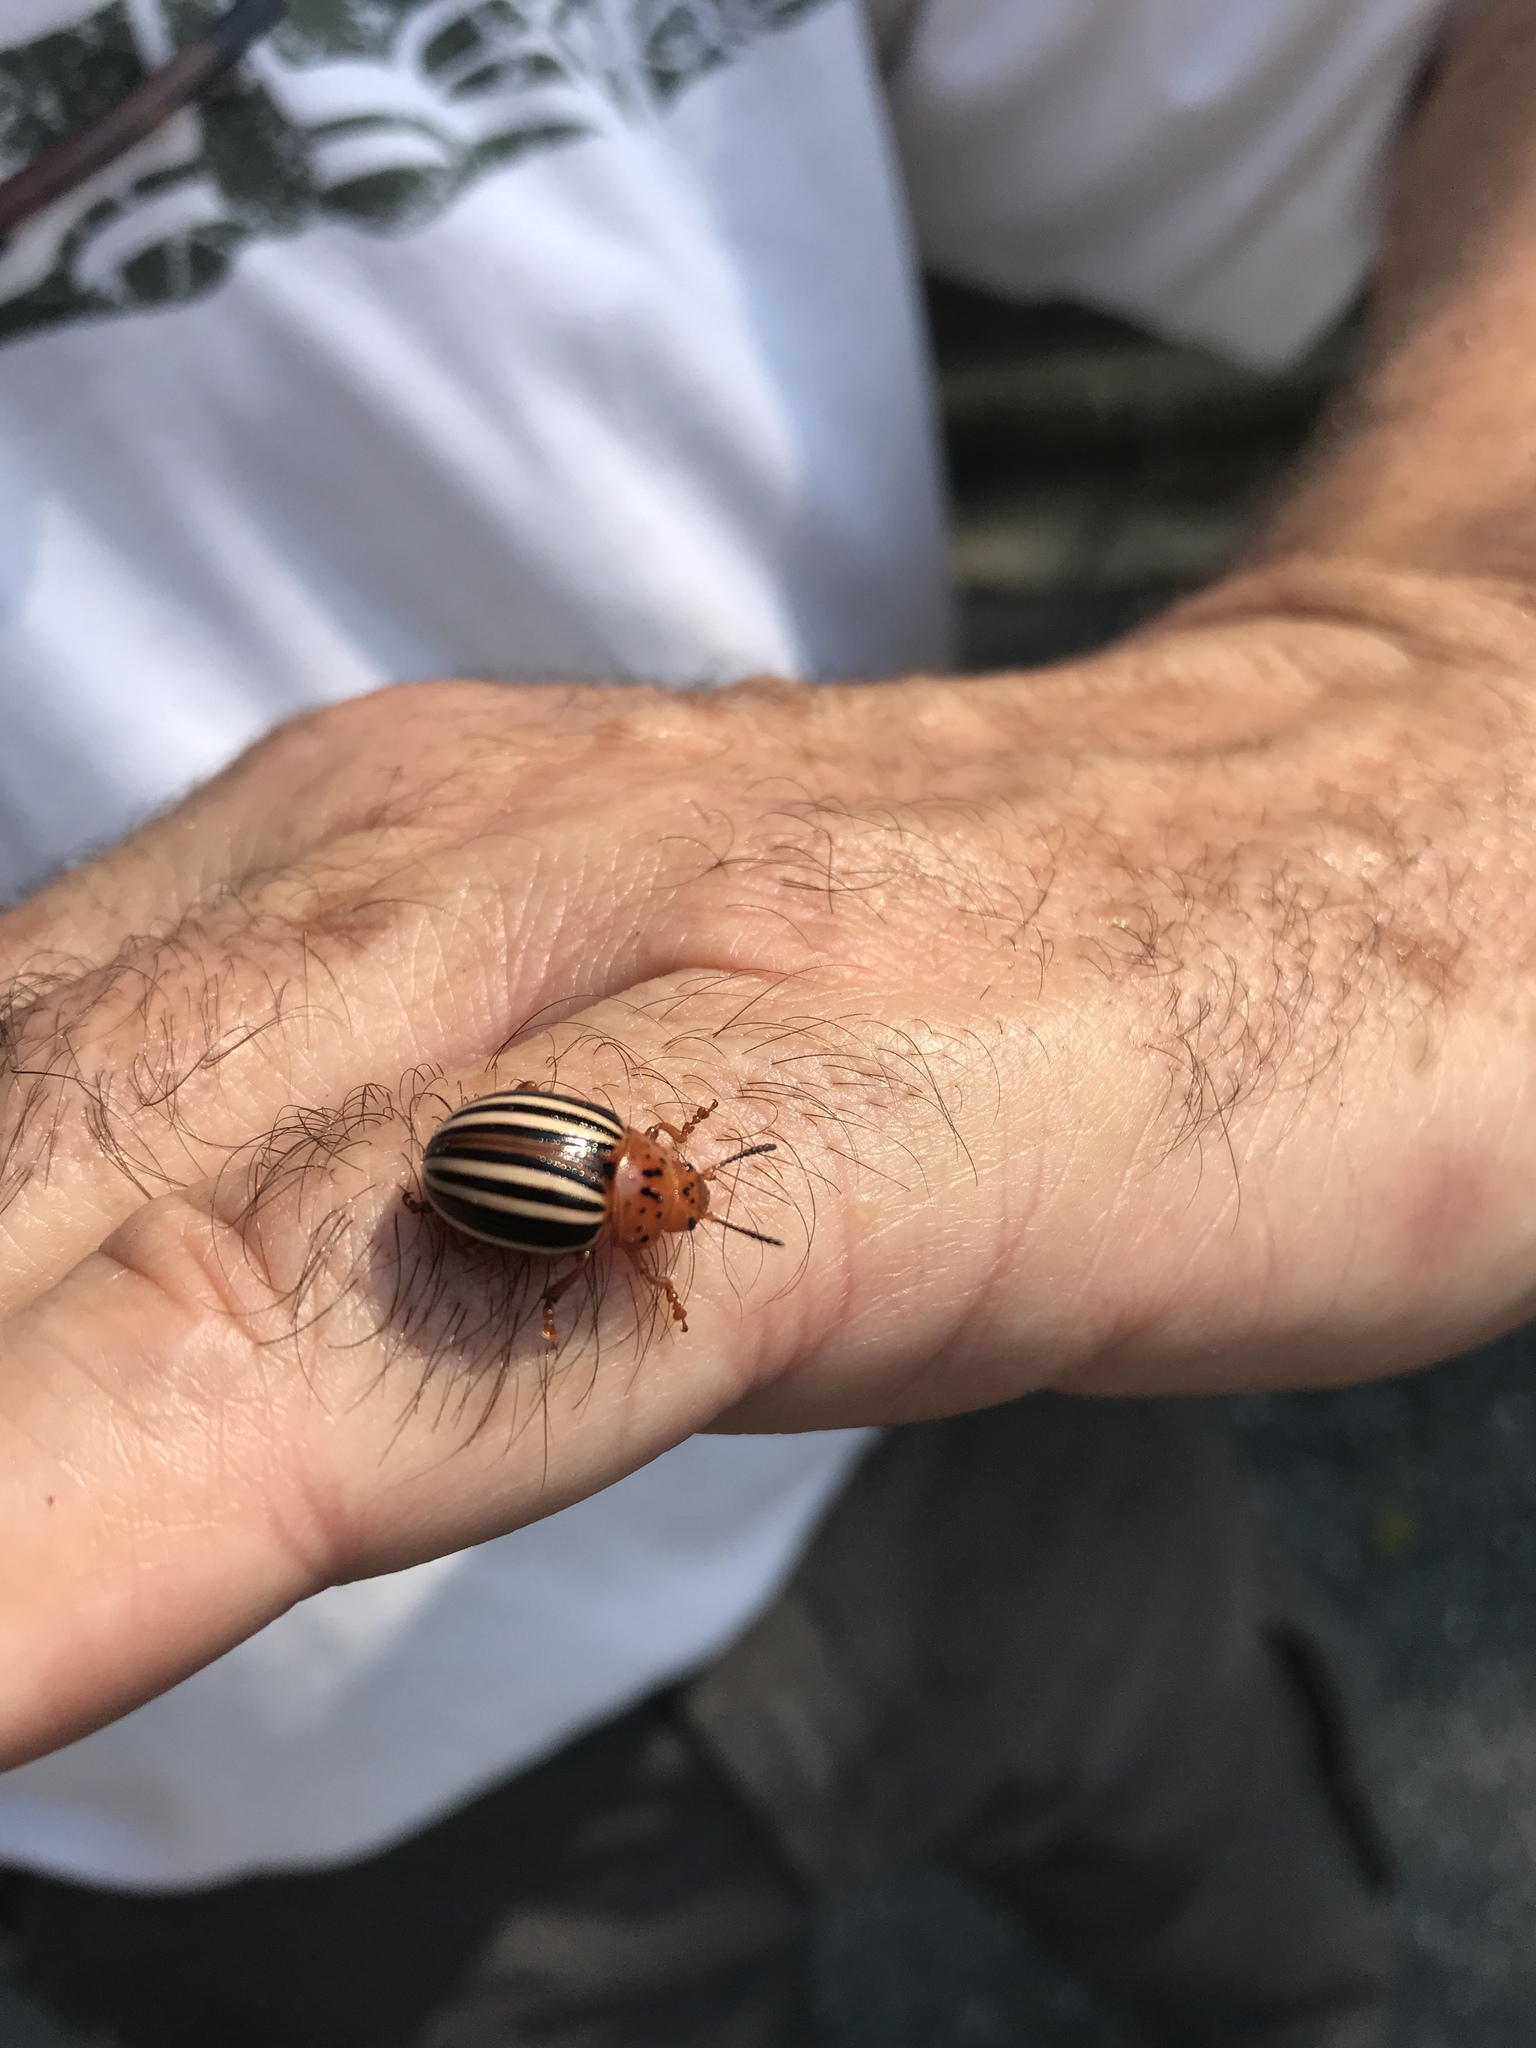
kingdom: Animalia
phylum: Arthropoda
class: Insecta
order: Coleoptera
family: Chrysomelidae
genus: Leptinotarsa
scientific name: Leptinotarsa juncta
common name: False potato beetle
